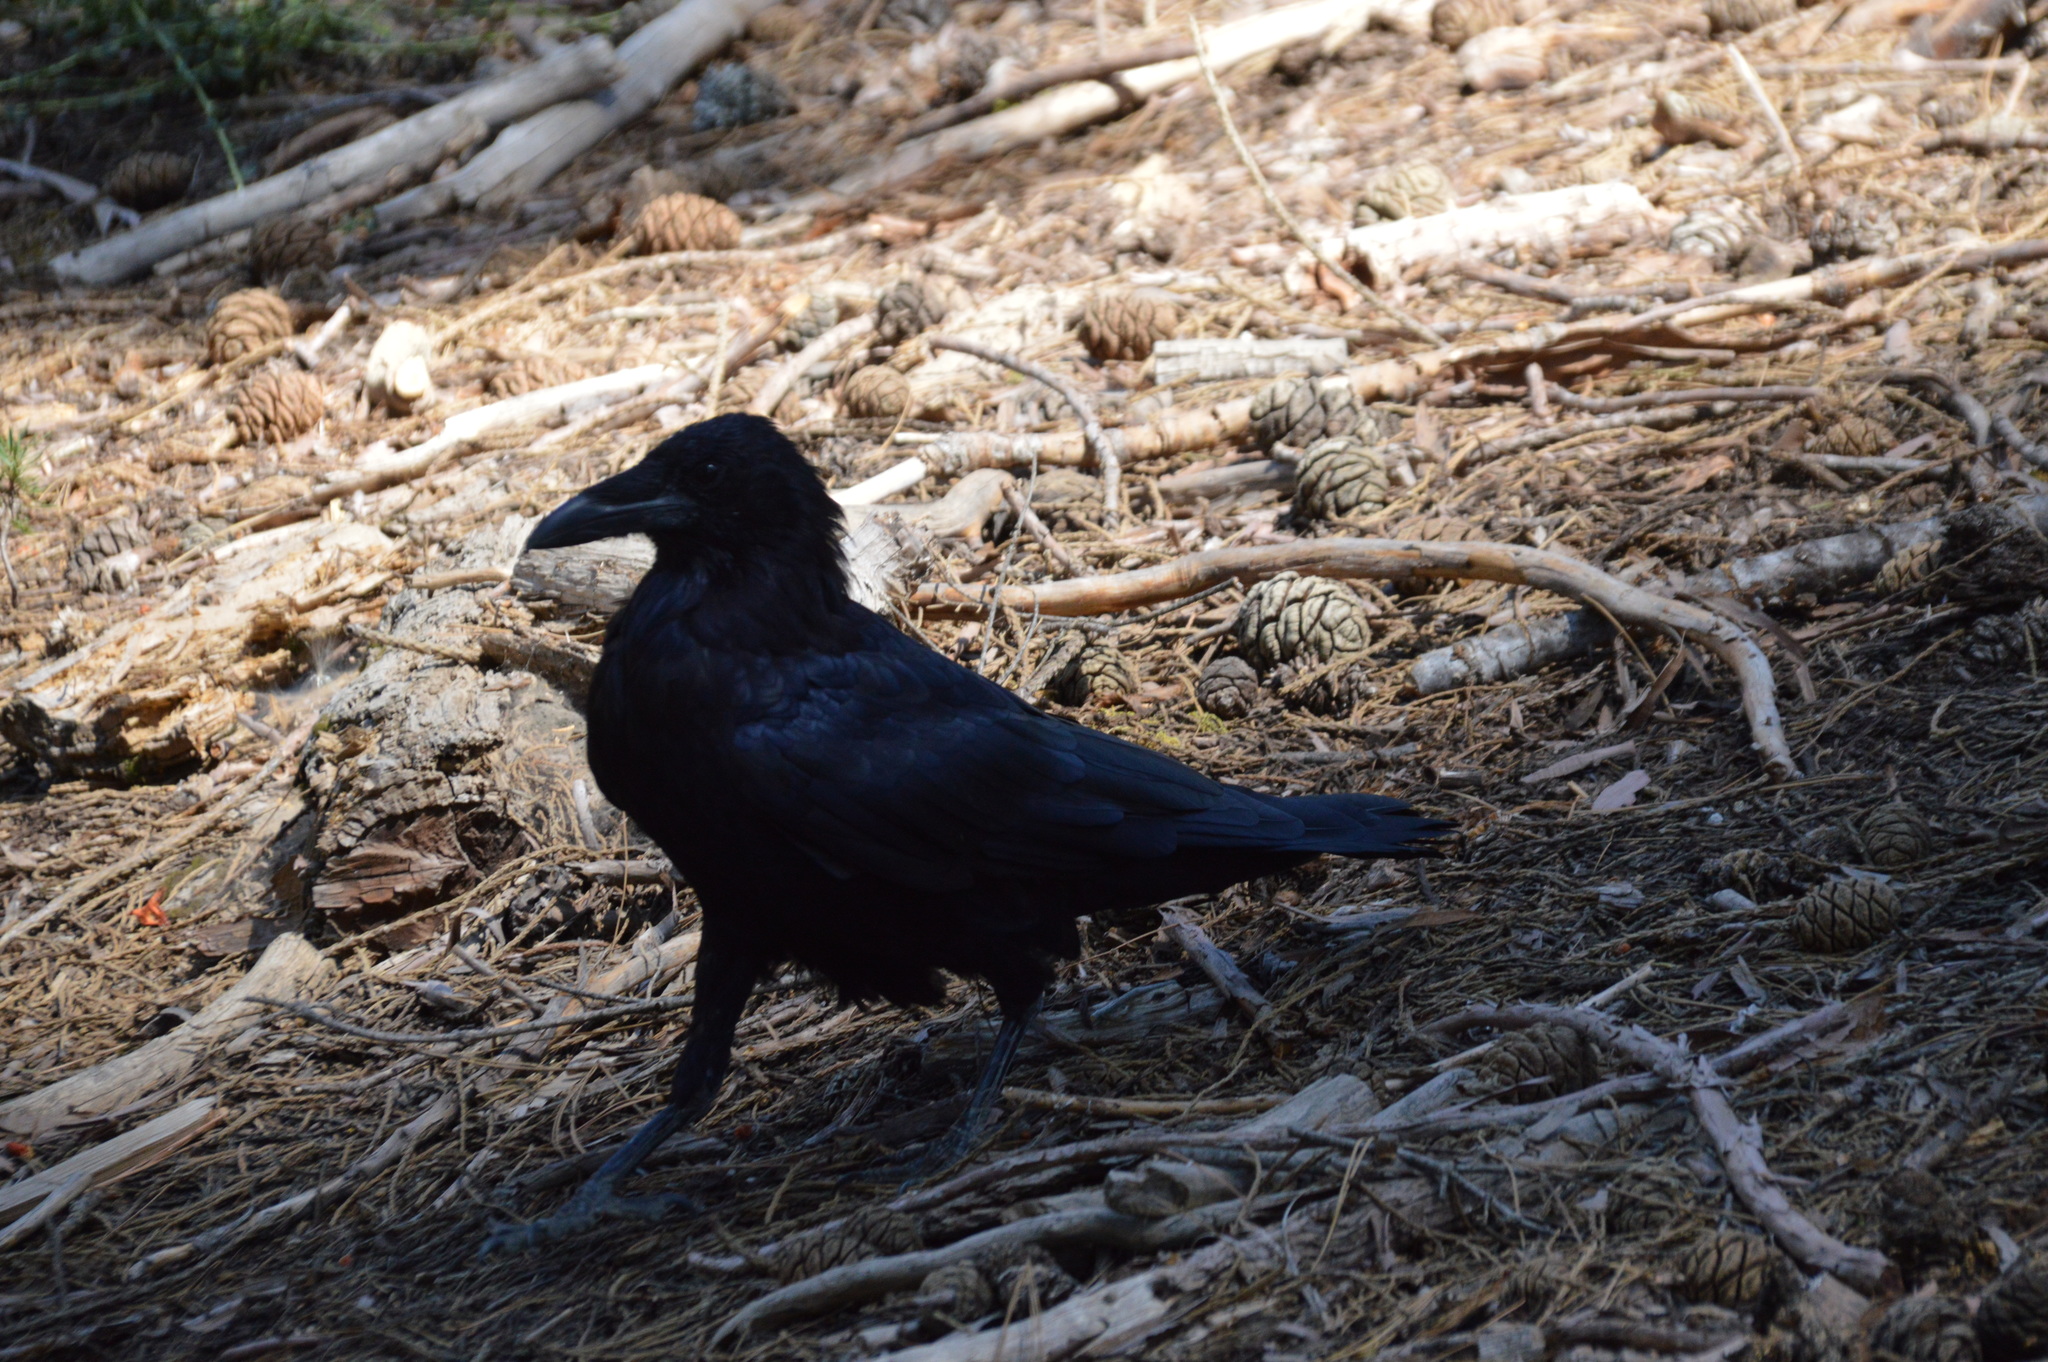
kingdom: Animalia
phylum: Chordata
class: Aves
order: Passeriformes
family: Corvidae
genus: Corvus
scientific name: Corvus corax
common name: Common raven
